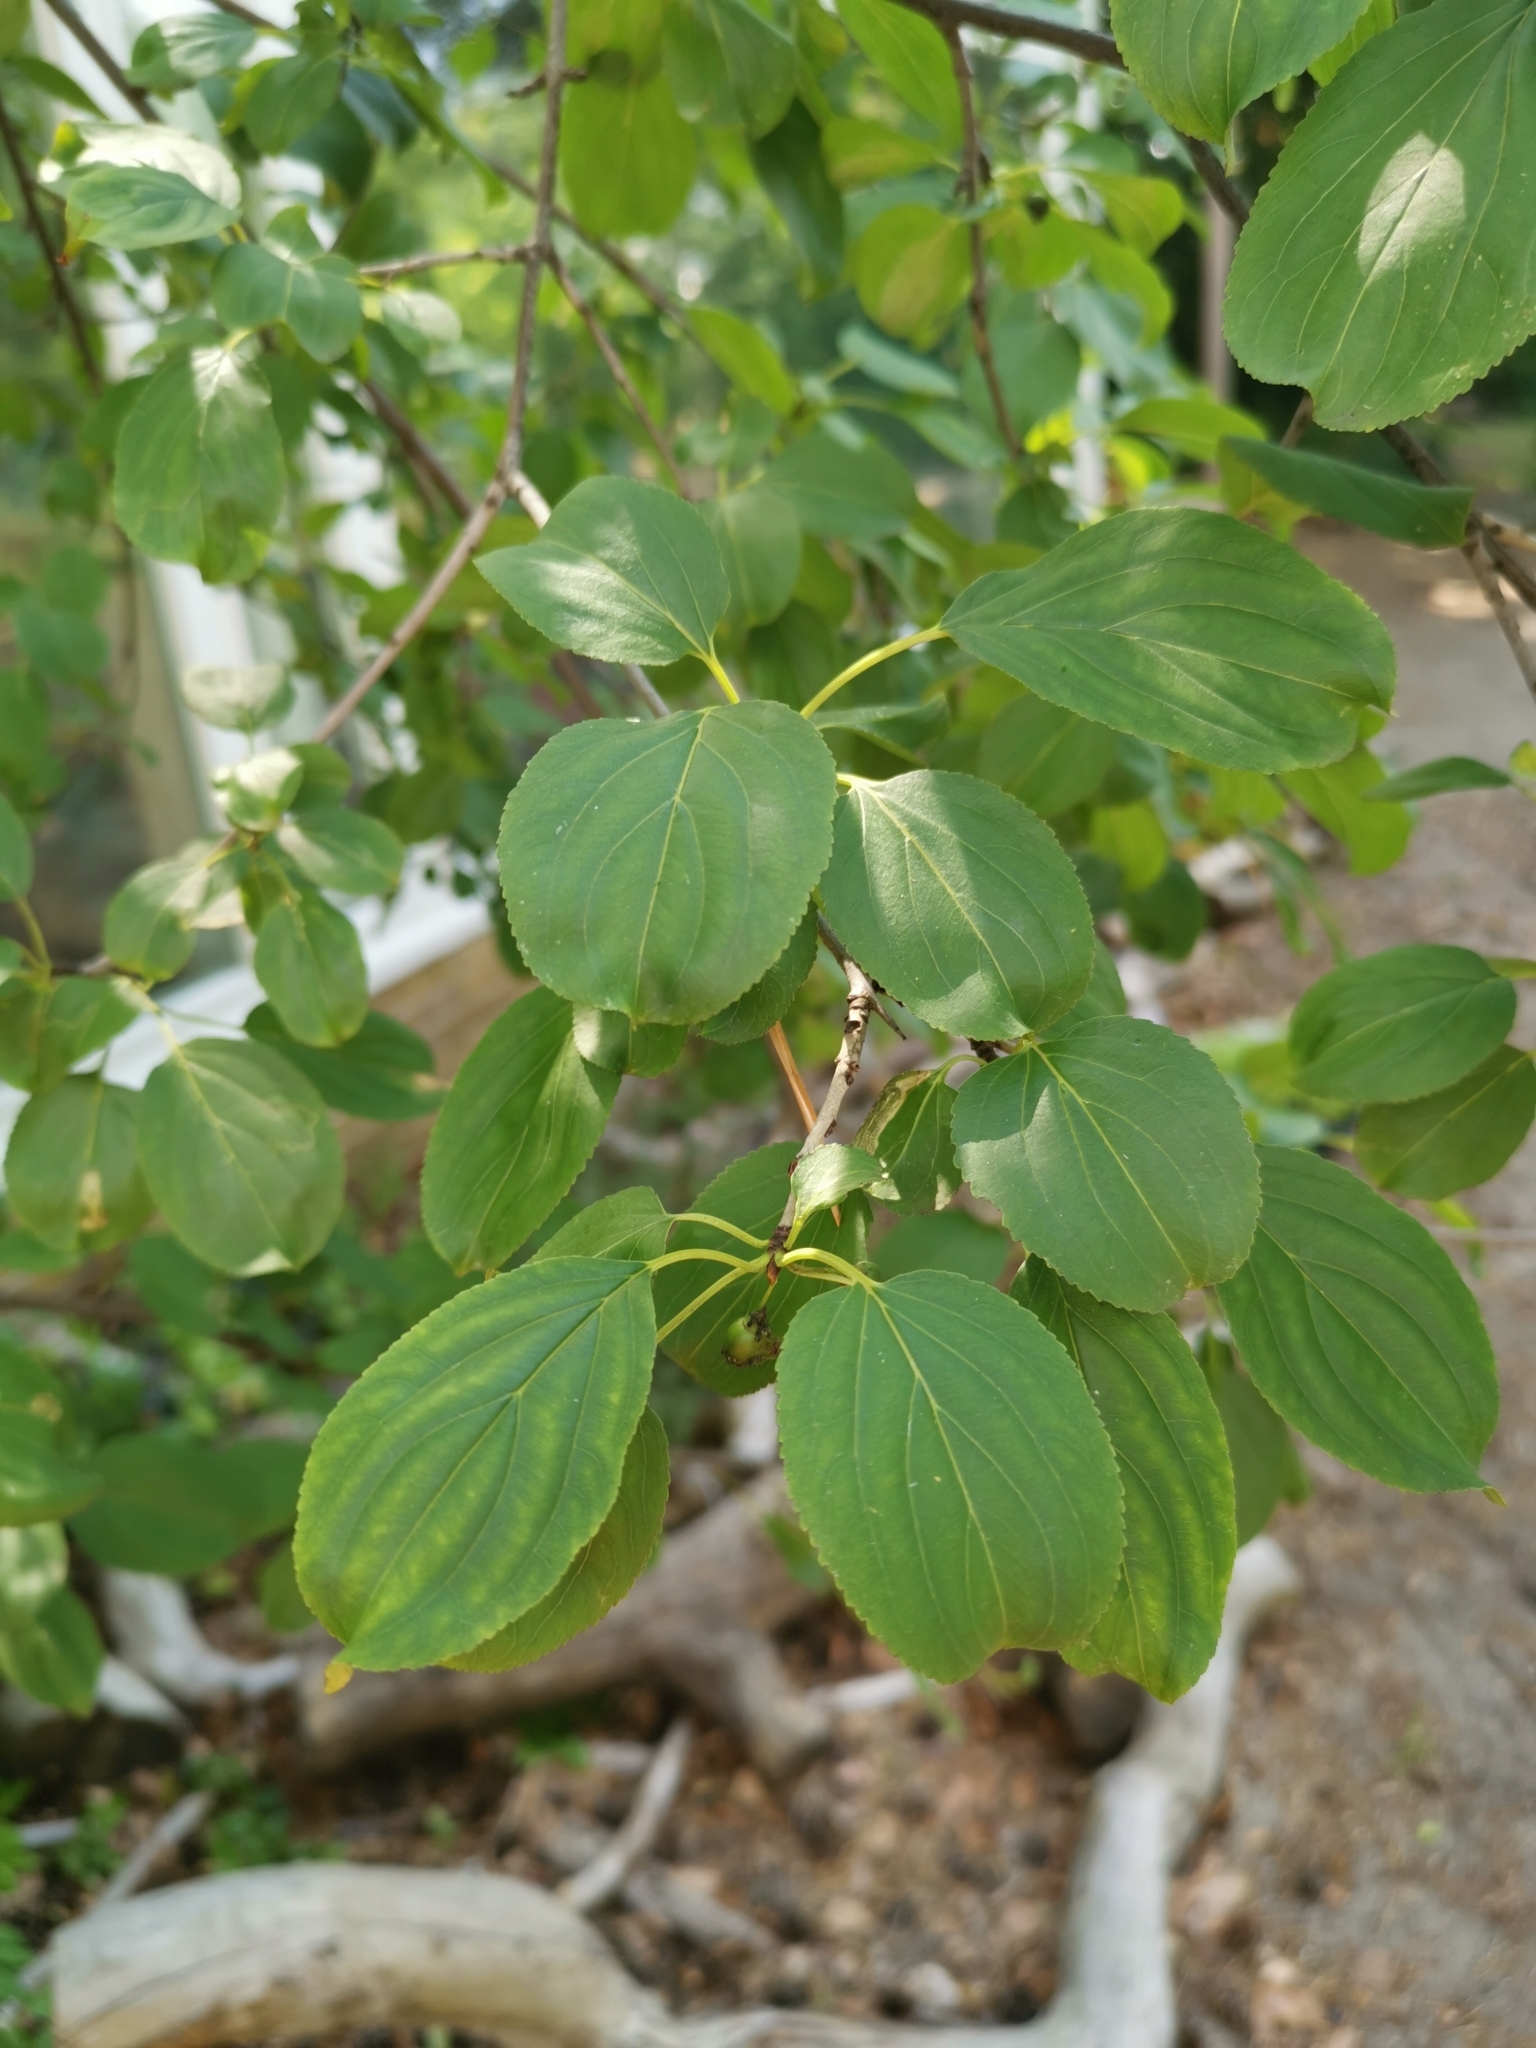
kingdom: Plantae
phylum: Tracheophyta
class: Magnoliopsida
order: Rosales
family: Rhamnaceae
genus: Rhamnus
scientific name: Rhamnus cathartica
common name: Common buckthorn
